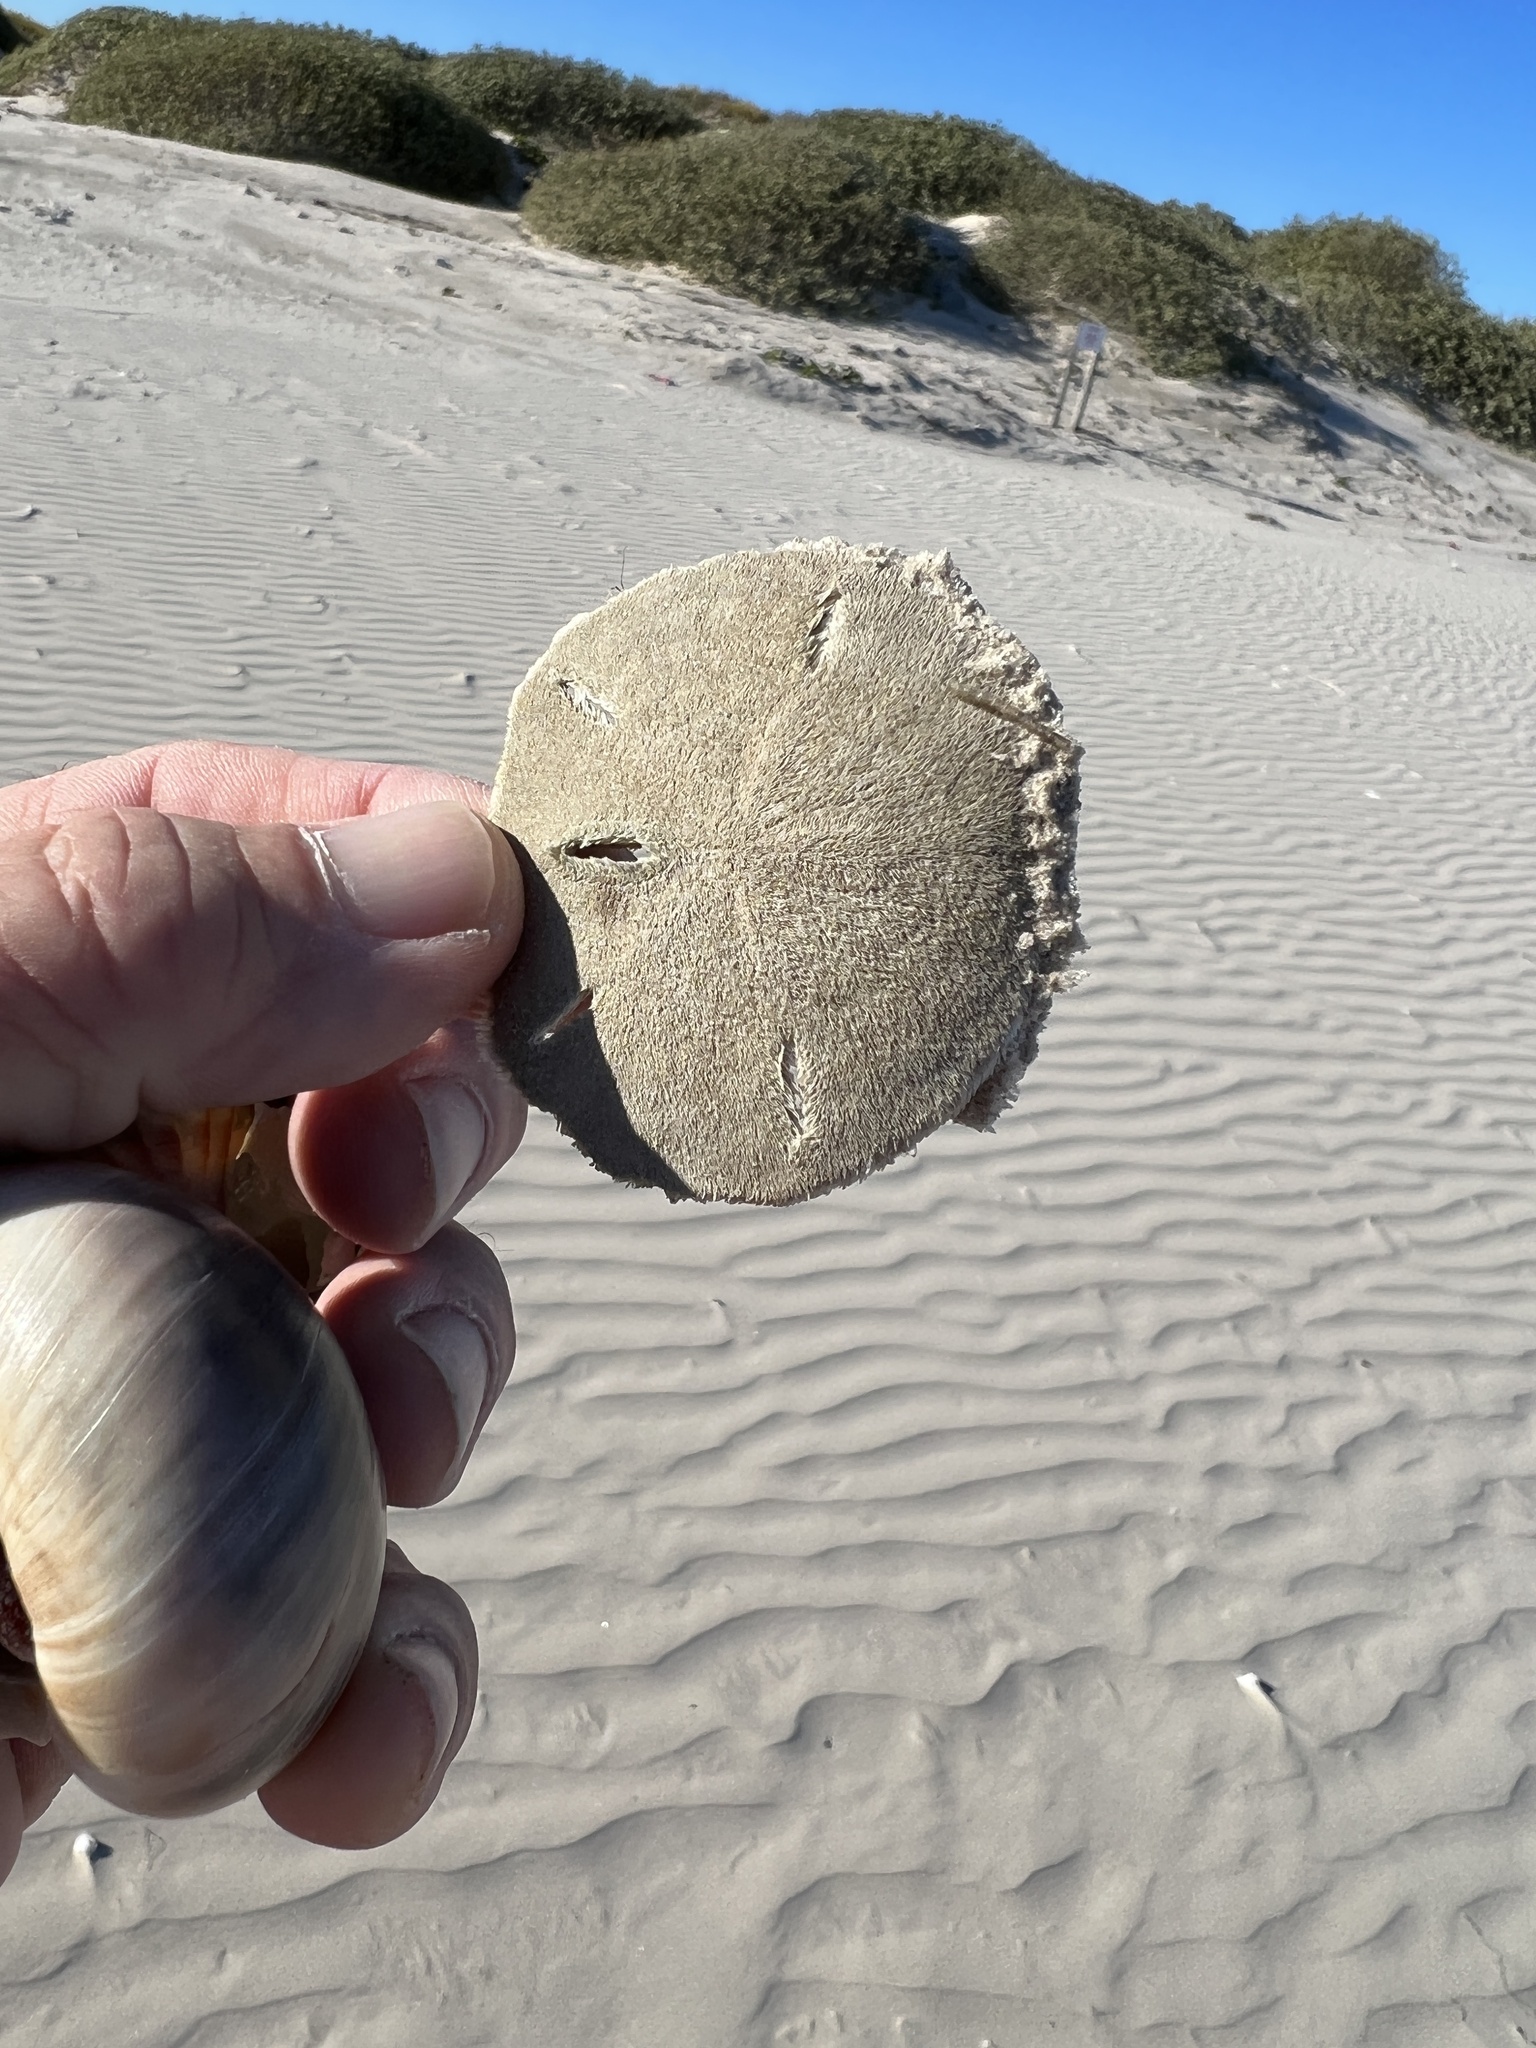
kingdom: Animalia
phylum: Echinodermata
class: Echinoidea
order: Echinolampadacea
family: Mellitidae
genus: Mellita
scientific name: Mellita quinquiesperforata
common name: Sand dollar
